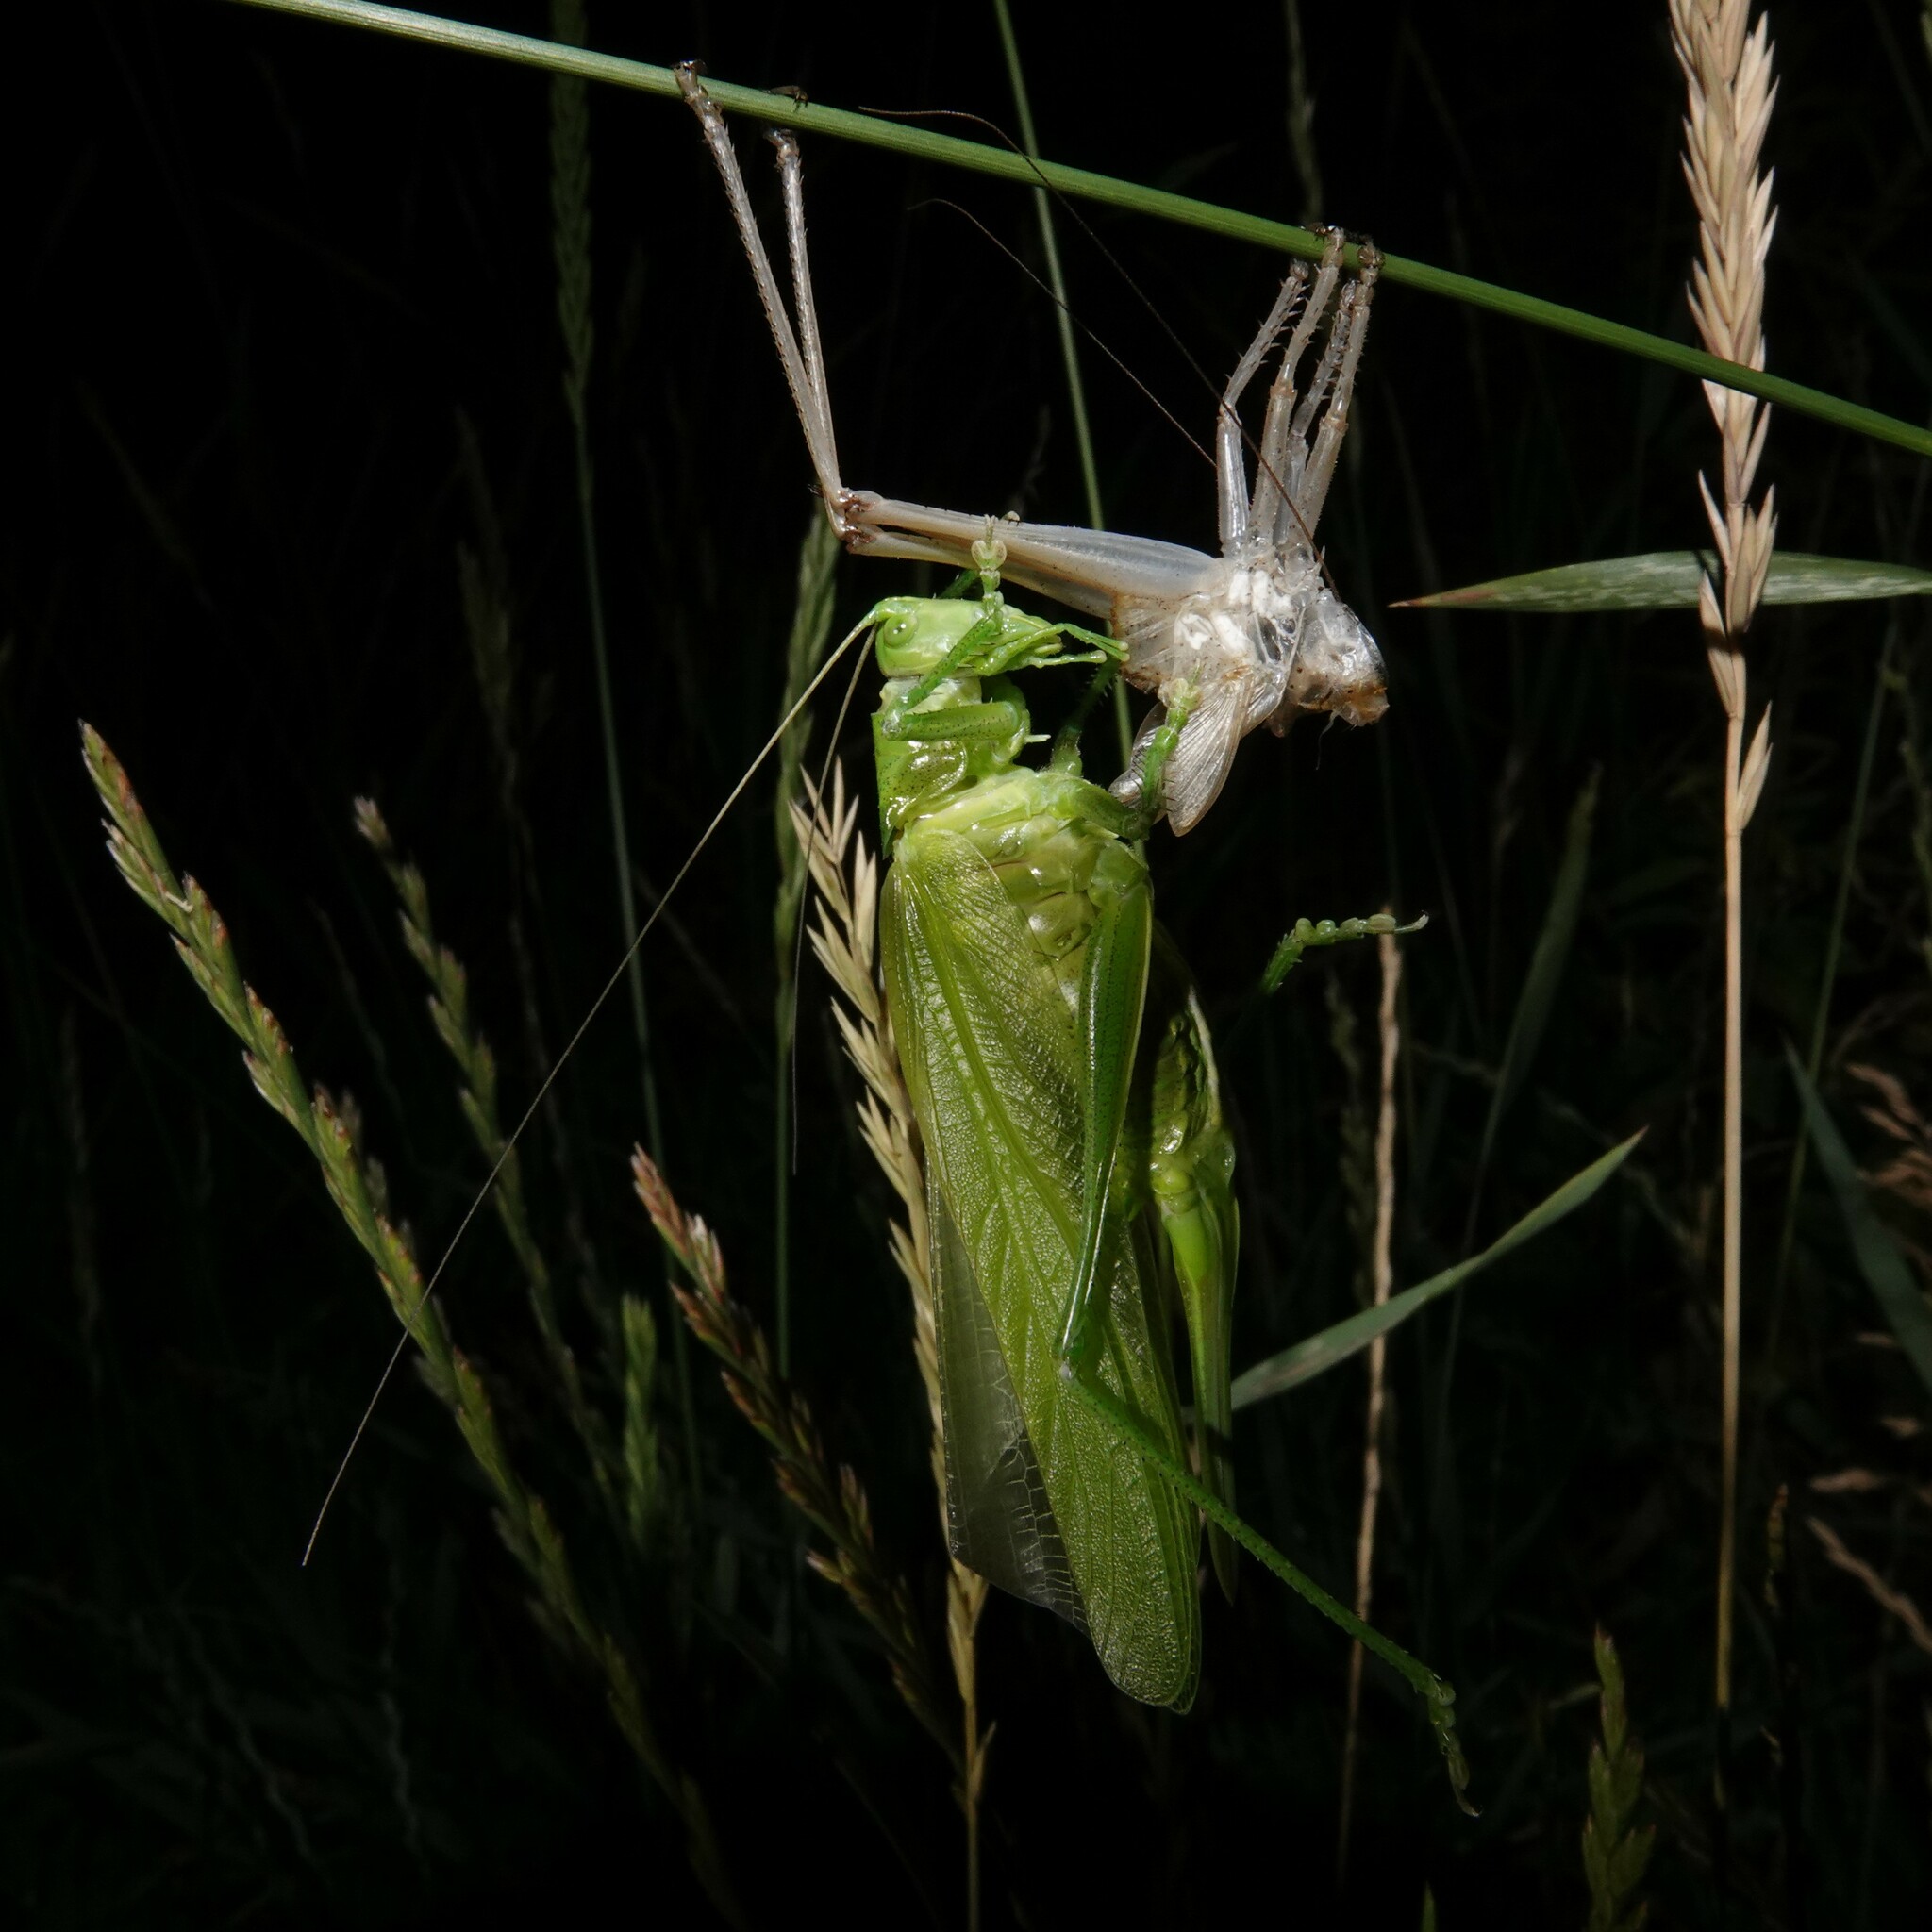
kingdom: Animalia
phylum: Arthropoda
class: Insecta
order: Orthoptera
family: Tettigoniidae
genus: Tettigonia
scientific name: Tettigonia viridissima
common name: Great green bush-cricket
